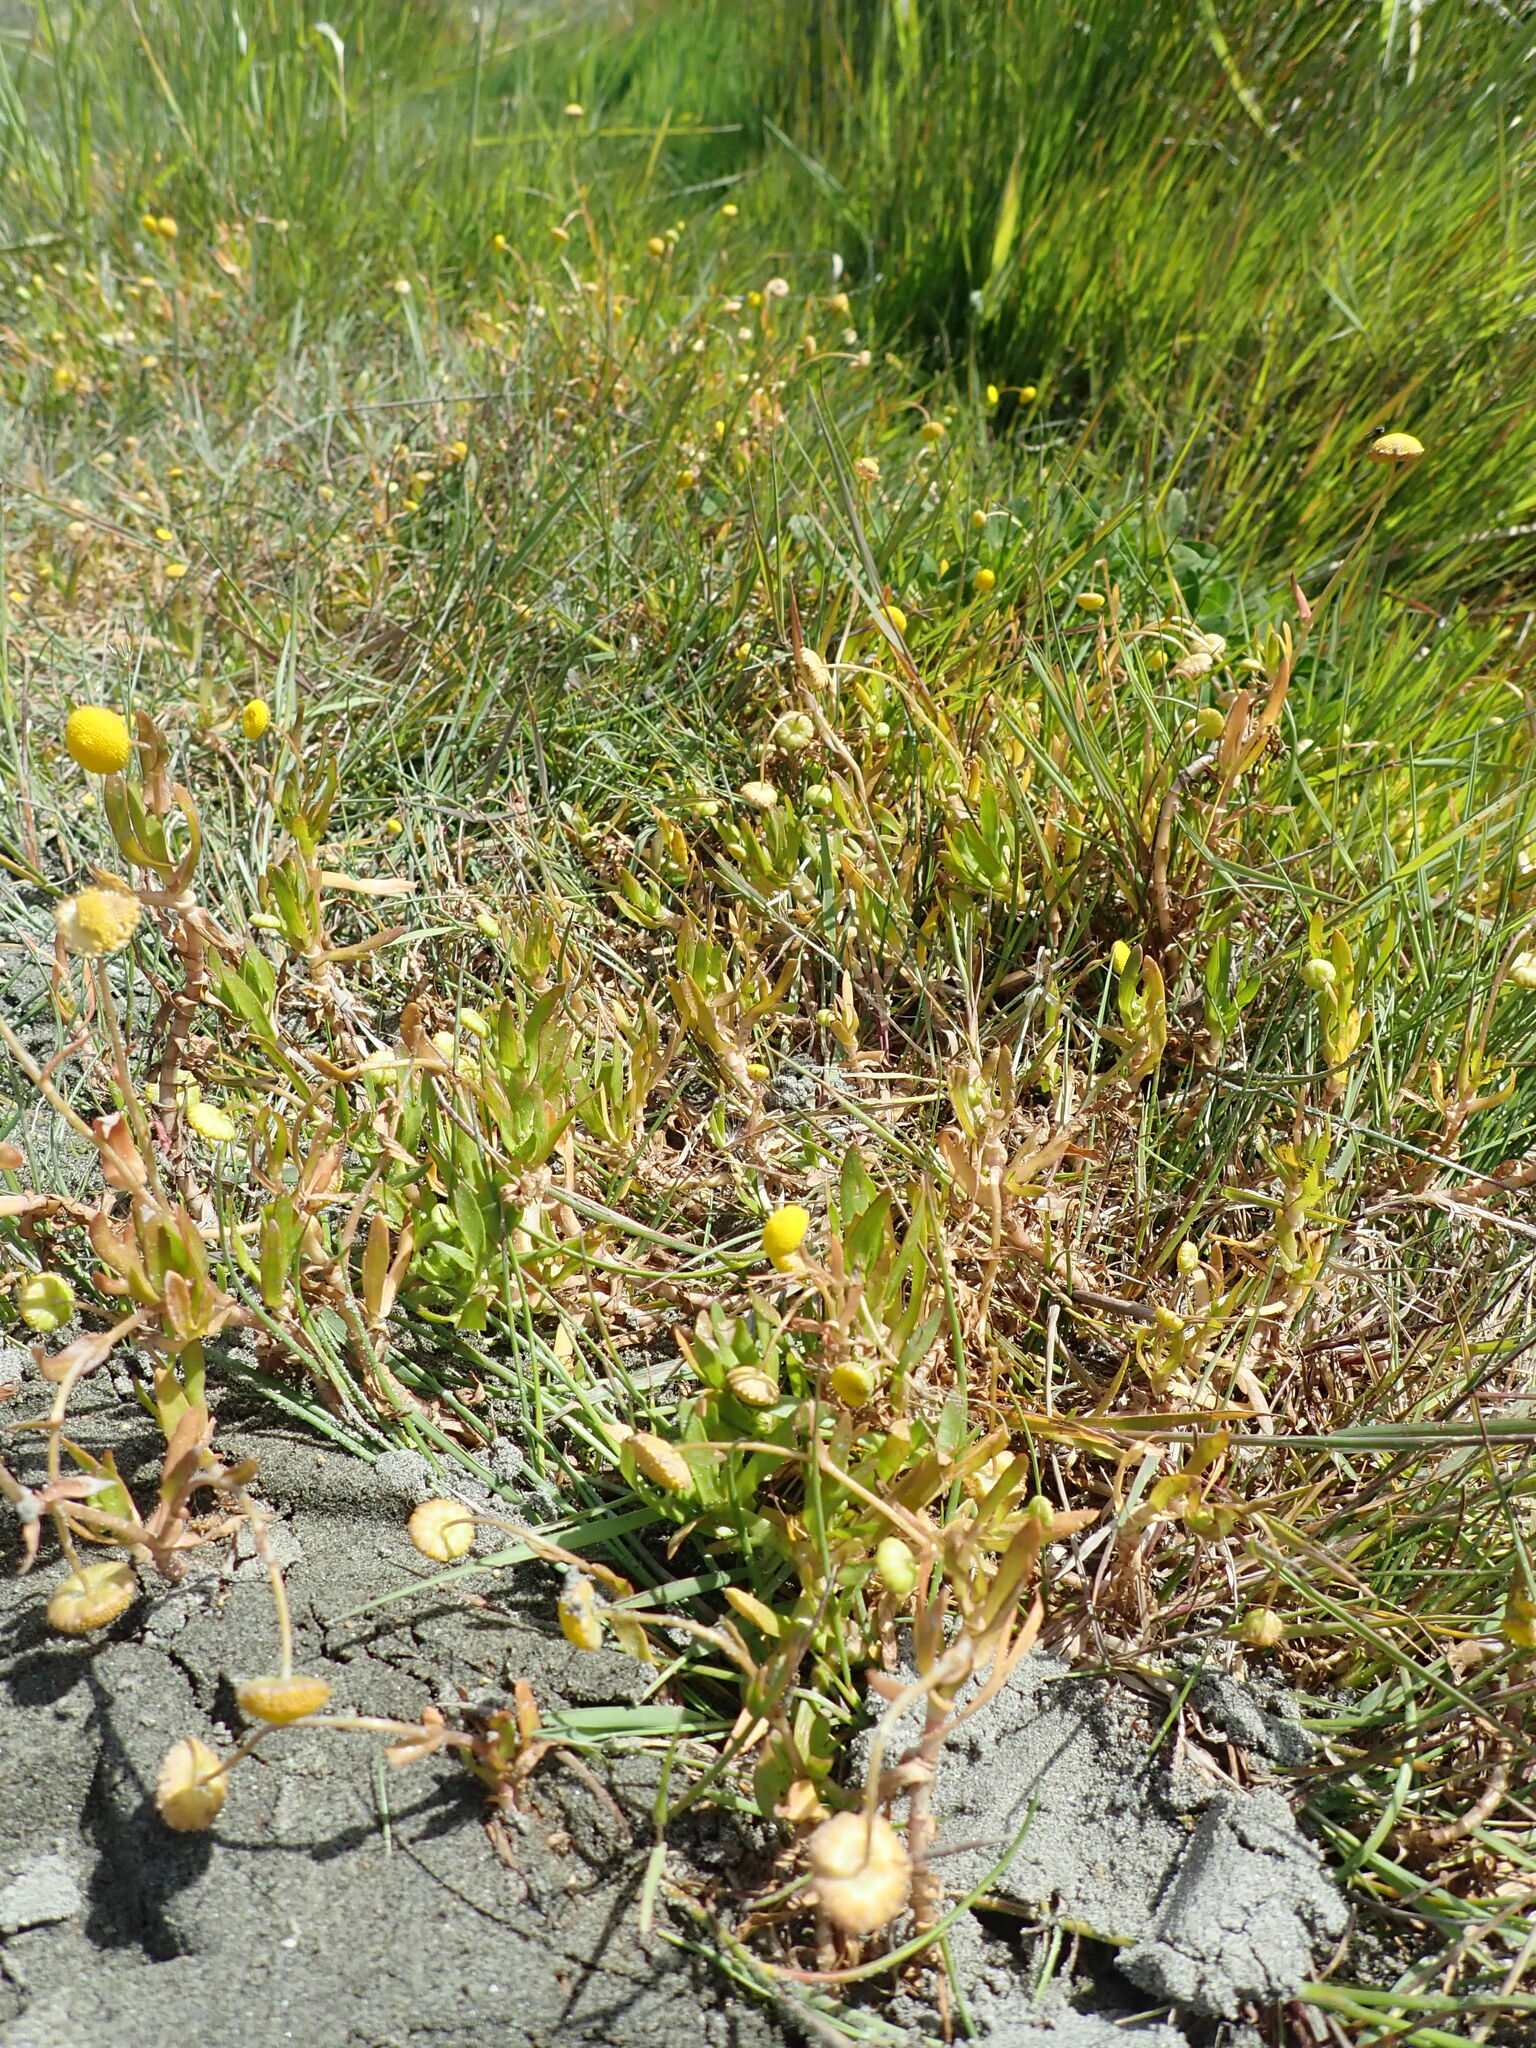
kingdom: Plantae
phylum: Tracheophyta
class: Magnoliopsida
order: Asterales
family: Asteraceae
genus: Cotula
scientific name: Cotula coronopifolia
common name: Buttonweed
